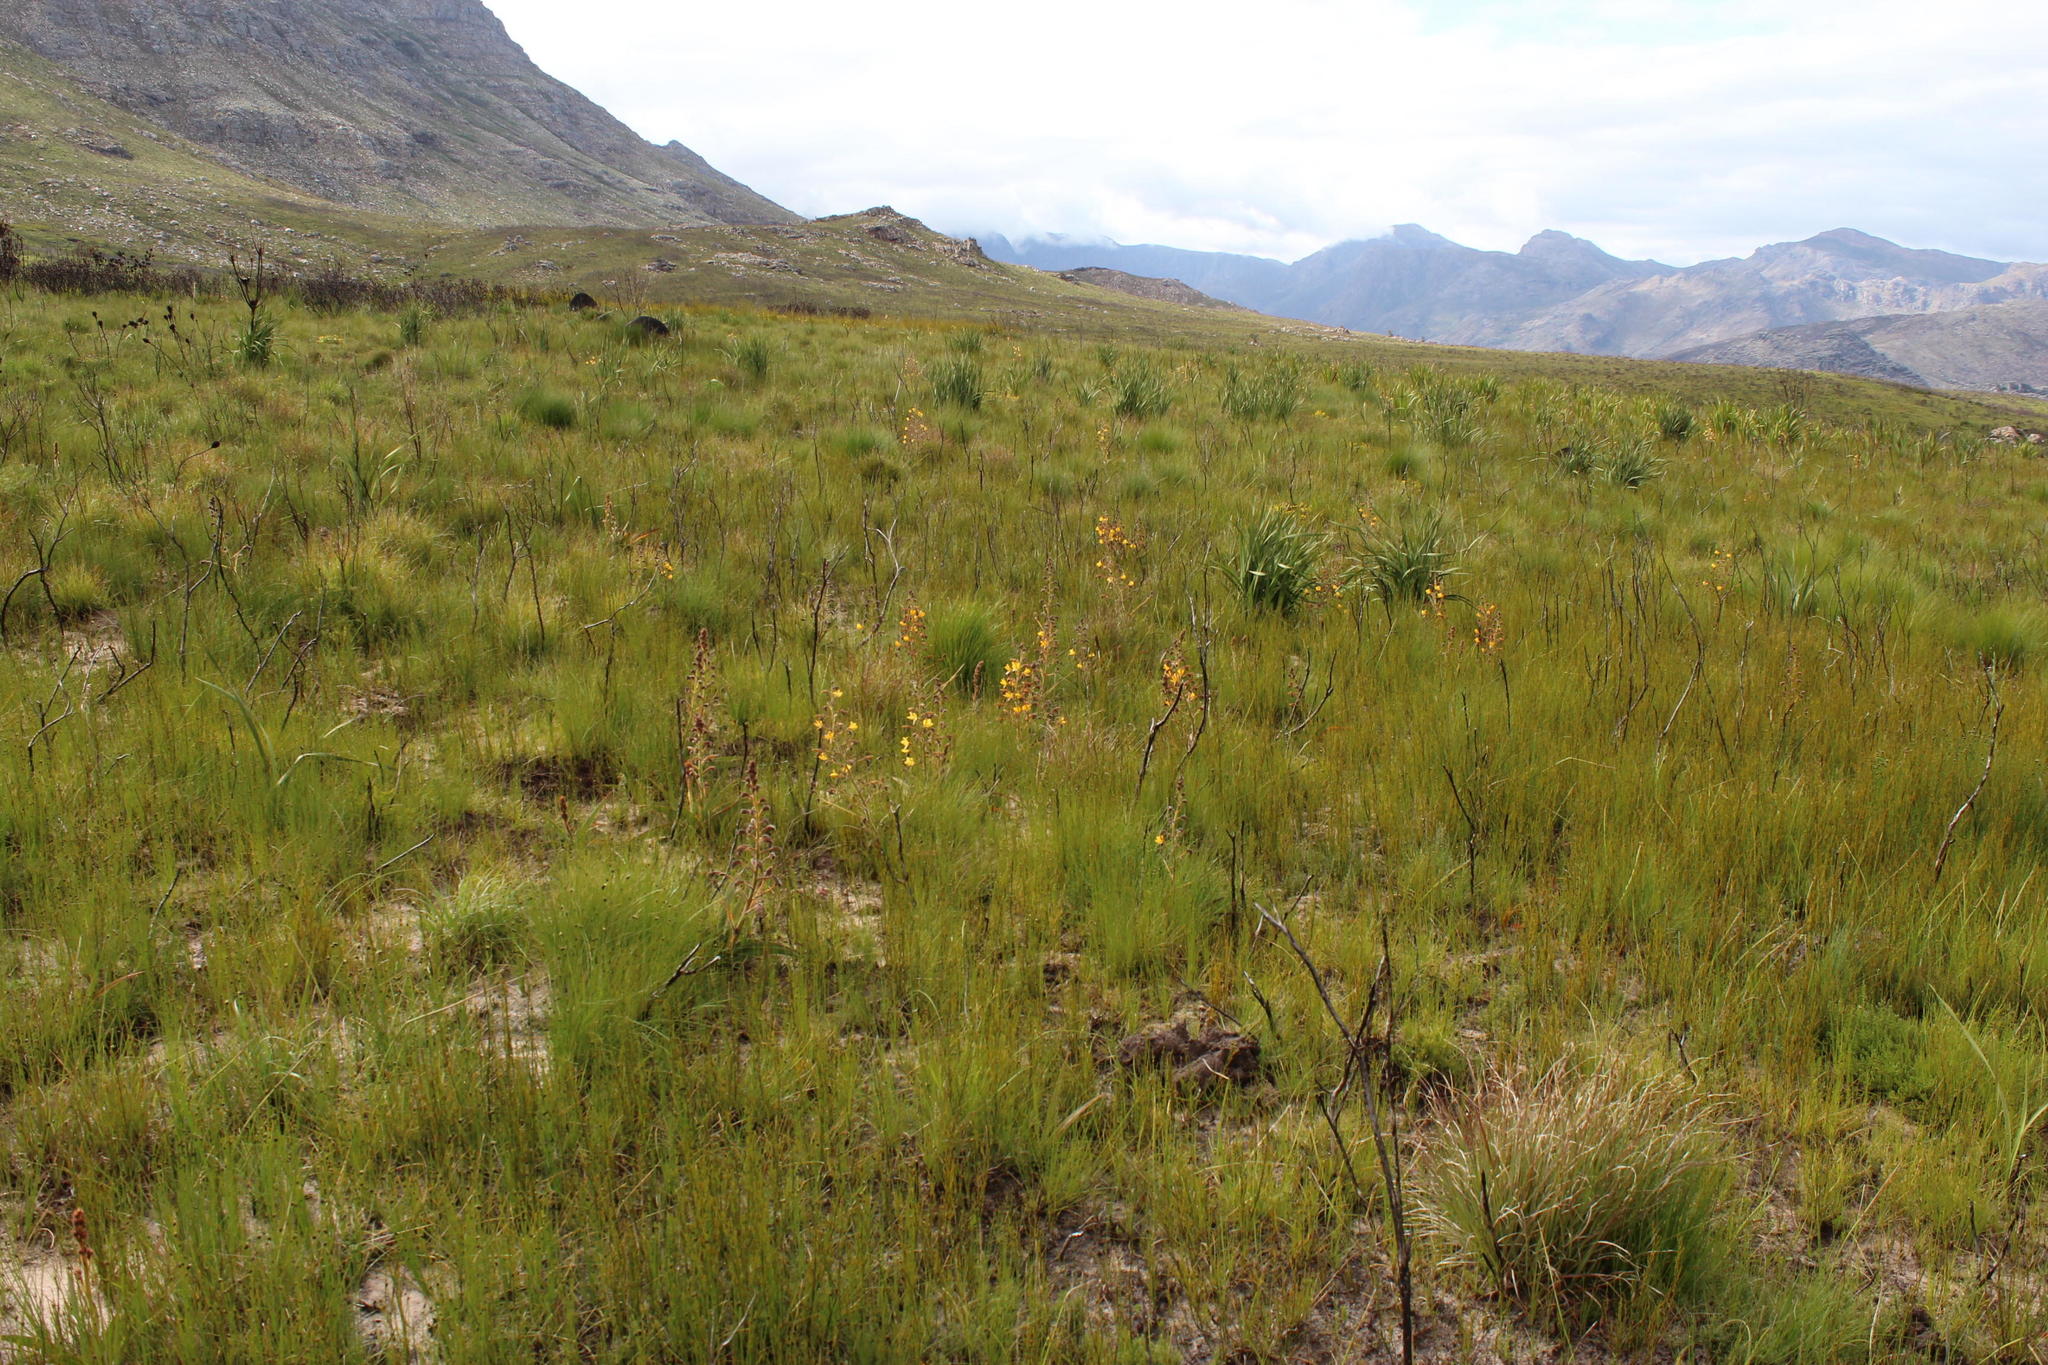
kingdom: Plantae
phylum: Tracheophyta
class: Liliopsida
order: Commelinales
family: Haemodoraceae
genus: Wachendorfia
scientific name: Wachendorfia paniculata
